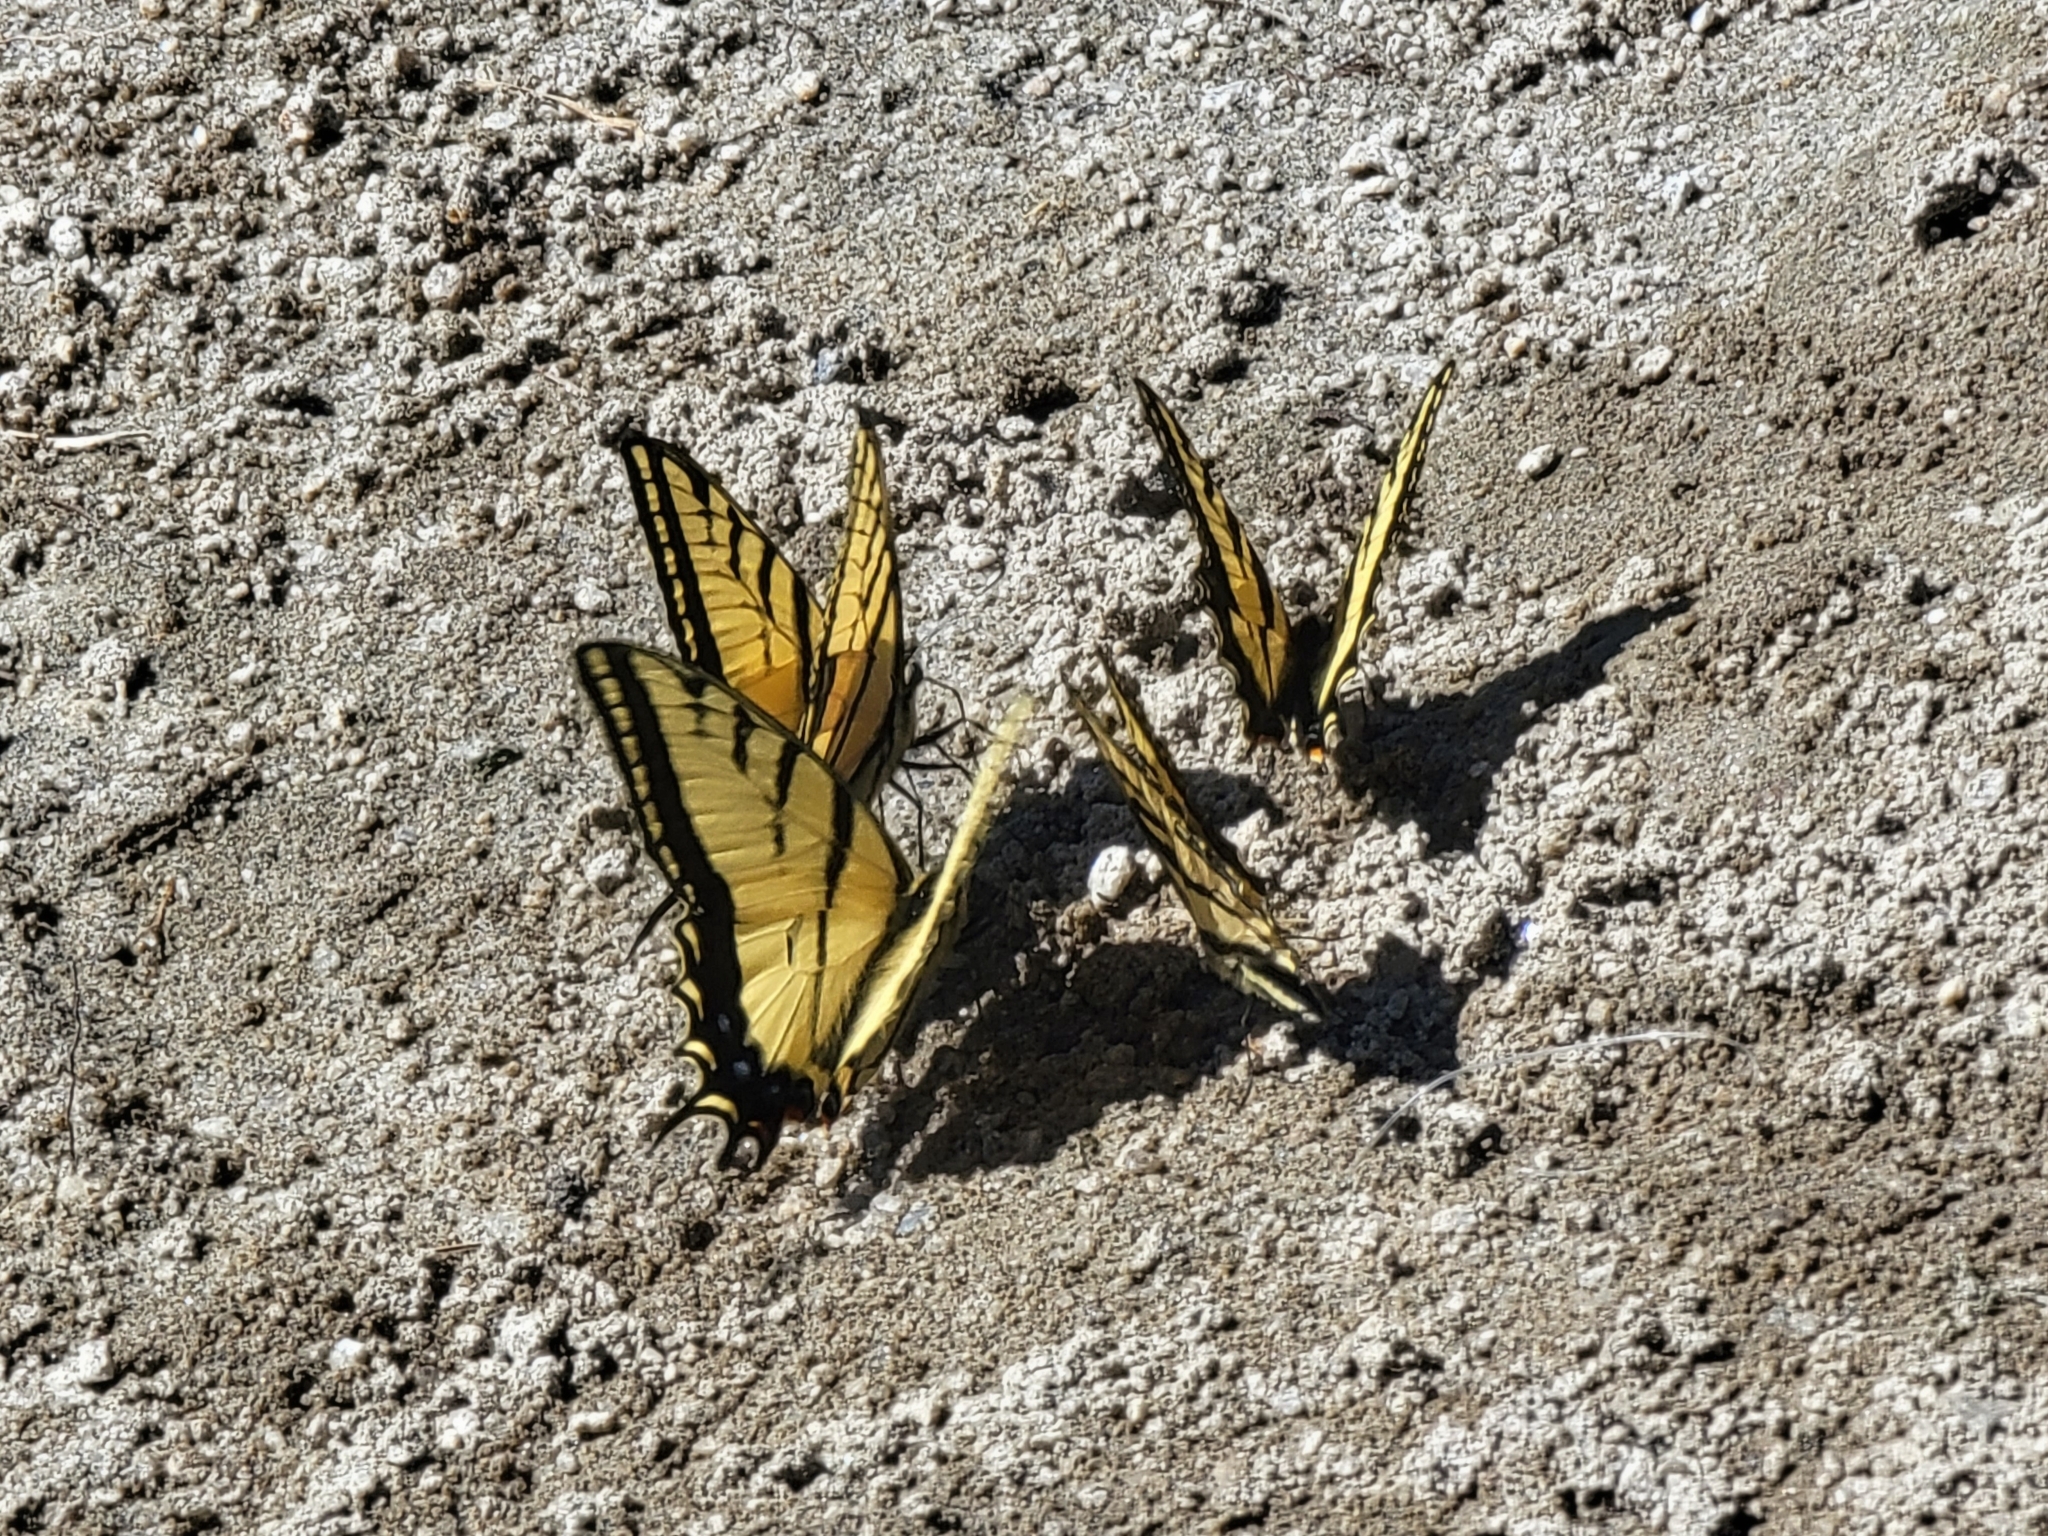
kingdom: Animalia
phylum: Arthropoda
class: Insecta
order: Lepidoptera
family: Papilionidae
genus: Papilio
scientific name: Papilio multicaudata
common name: Two-tailed tiger swallowtail
